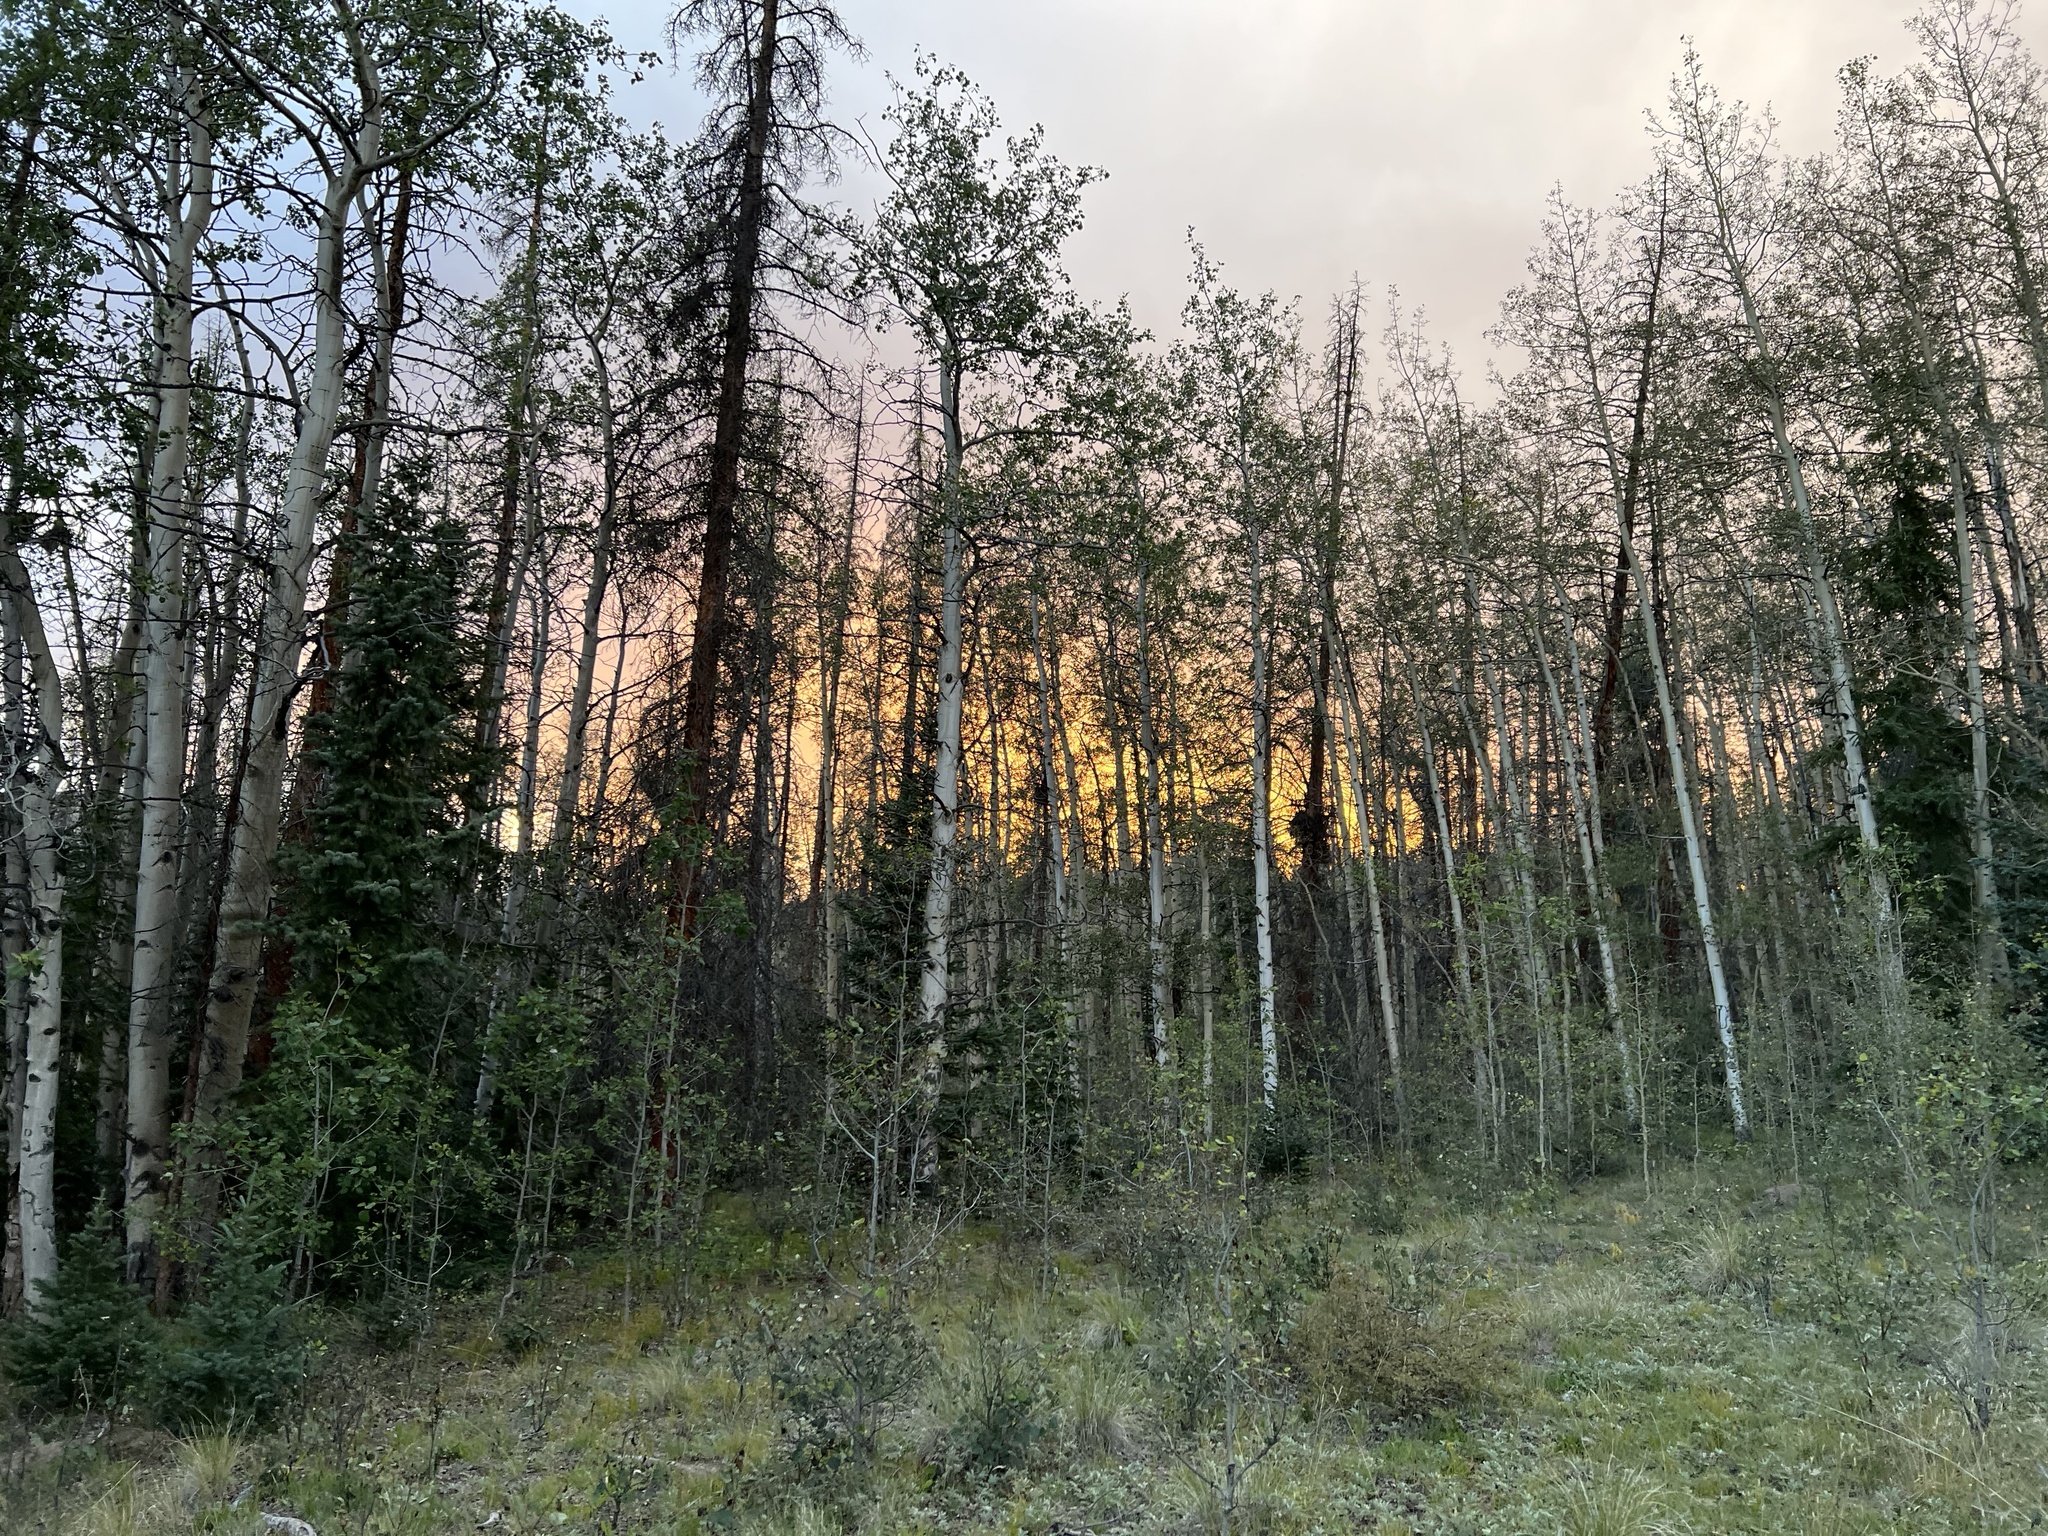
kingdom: Plantae
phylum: Tracheophyta
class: Magnoliopsida
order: Malpighiales
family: Salicaceae
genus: Populus
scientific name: Populus tremuloides
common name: Quaking aspen
